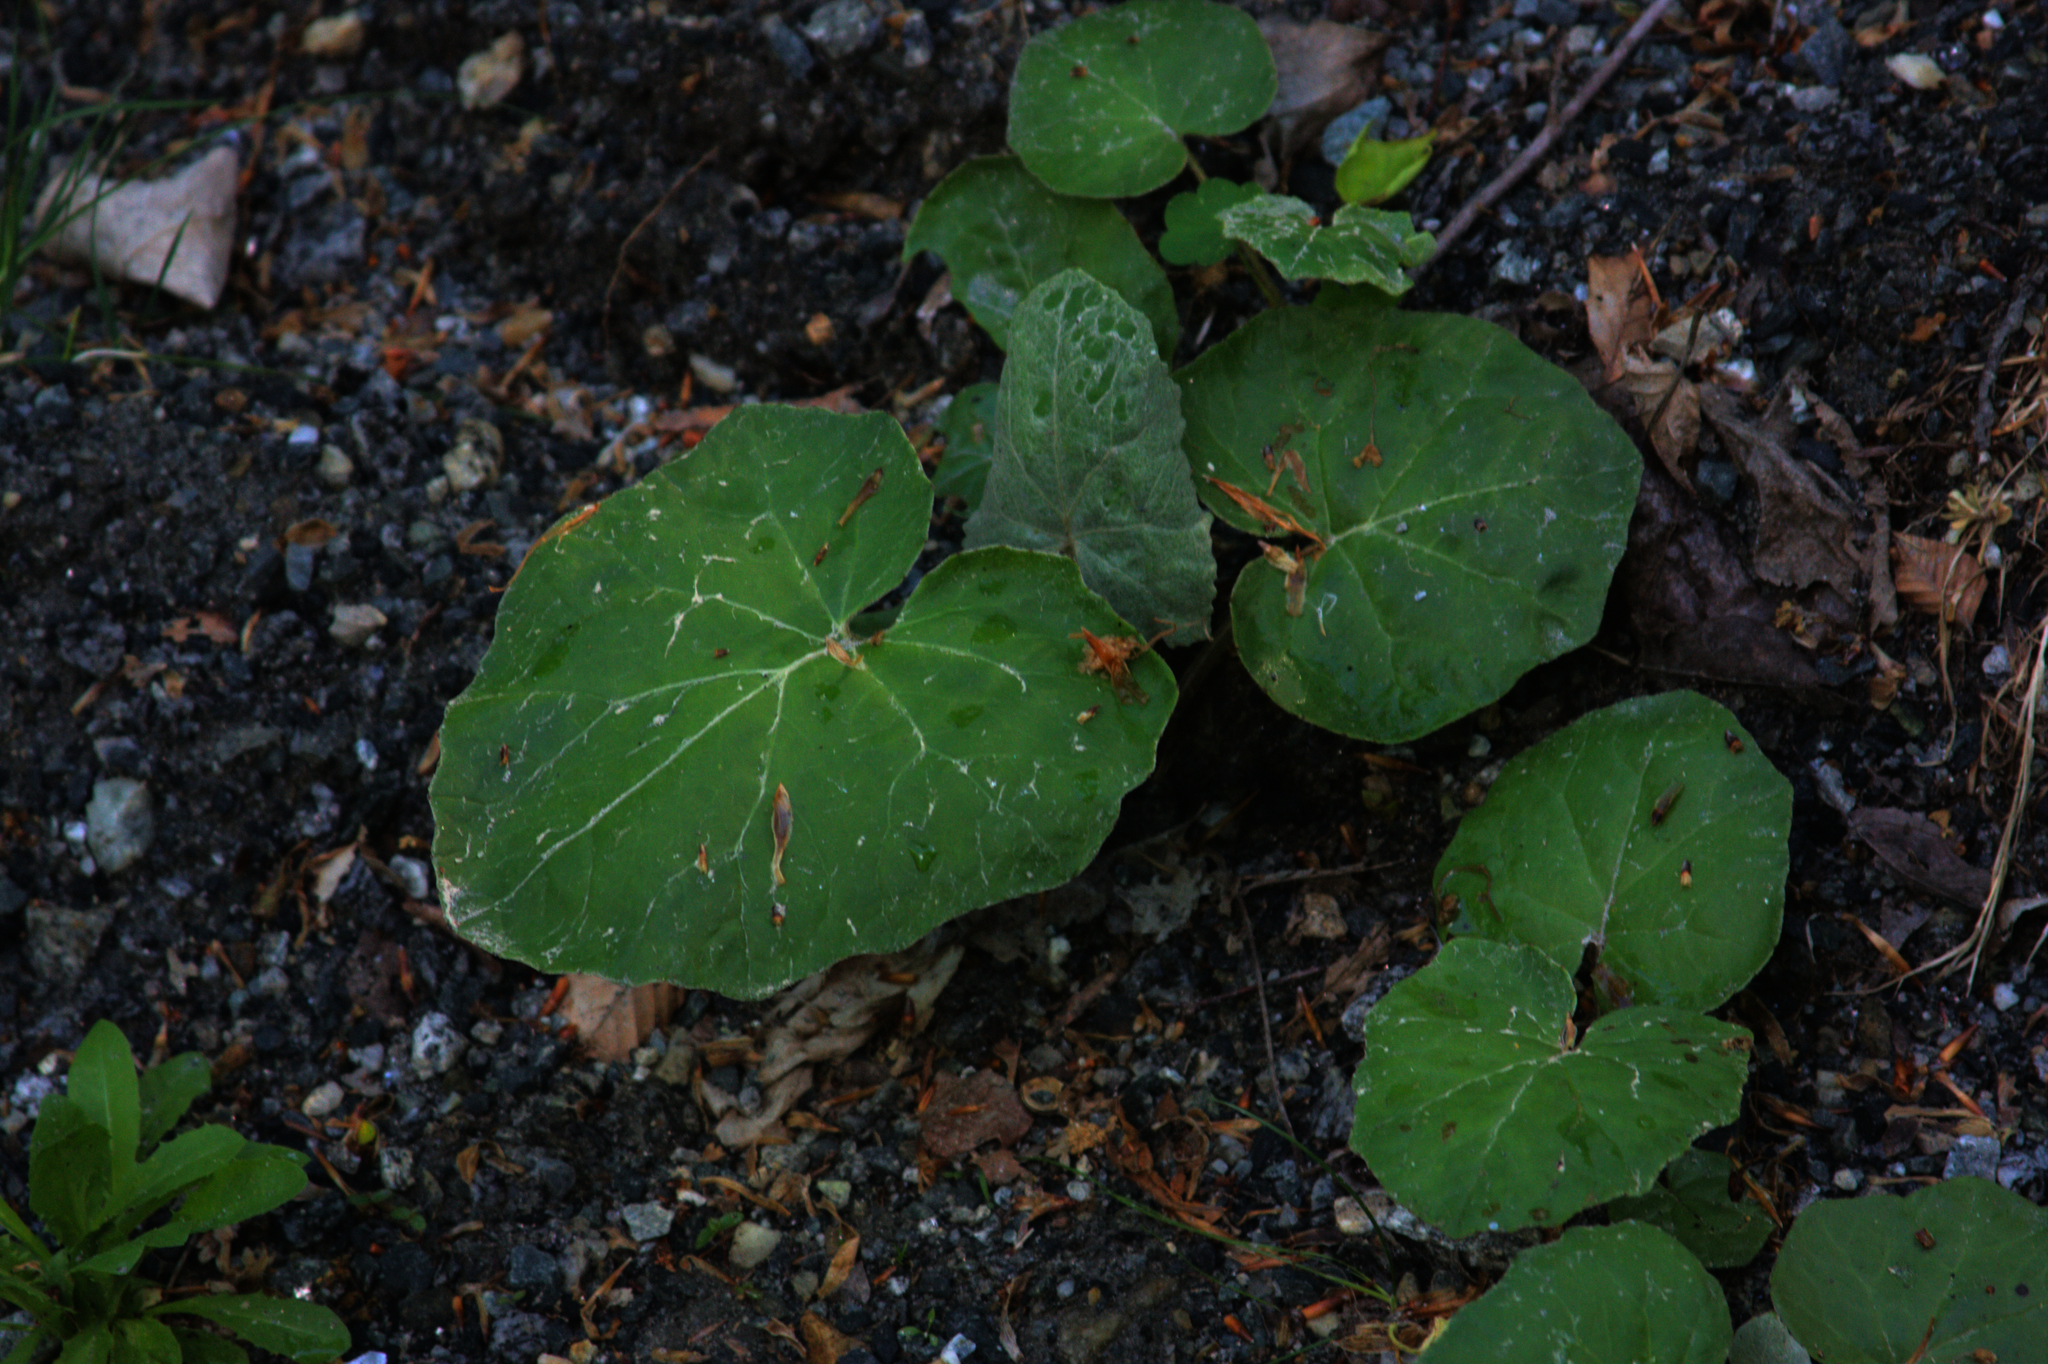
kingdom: Plantae
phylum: Tracheophyta
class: Magnoliopsida
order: Asterales
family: Asteraceae
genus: Tussilago
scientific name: Tussilago farfara
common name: Coltsfoot
